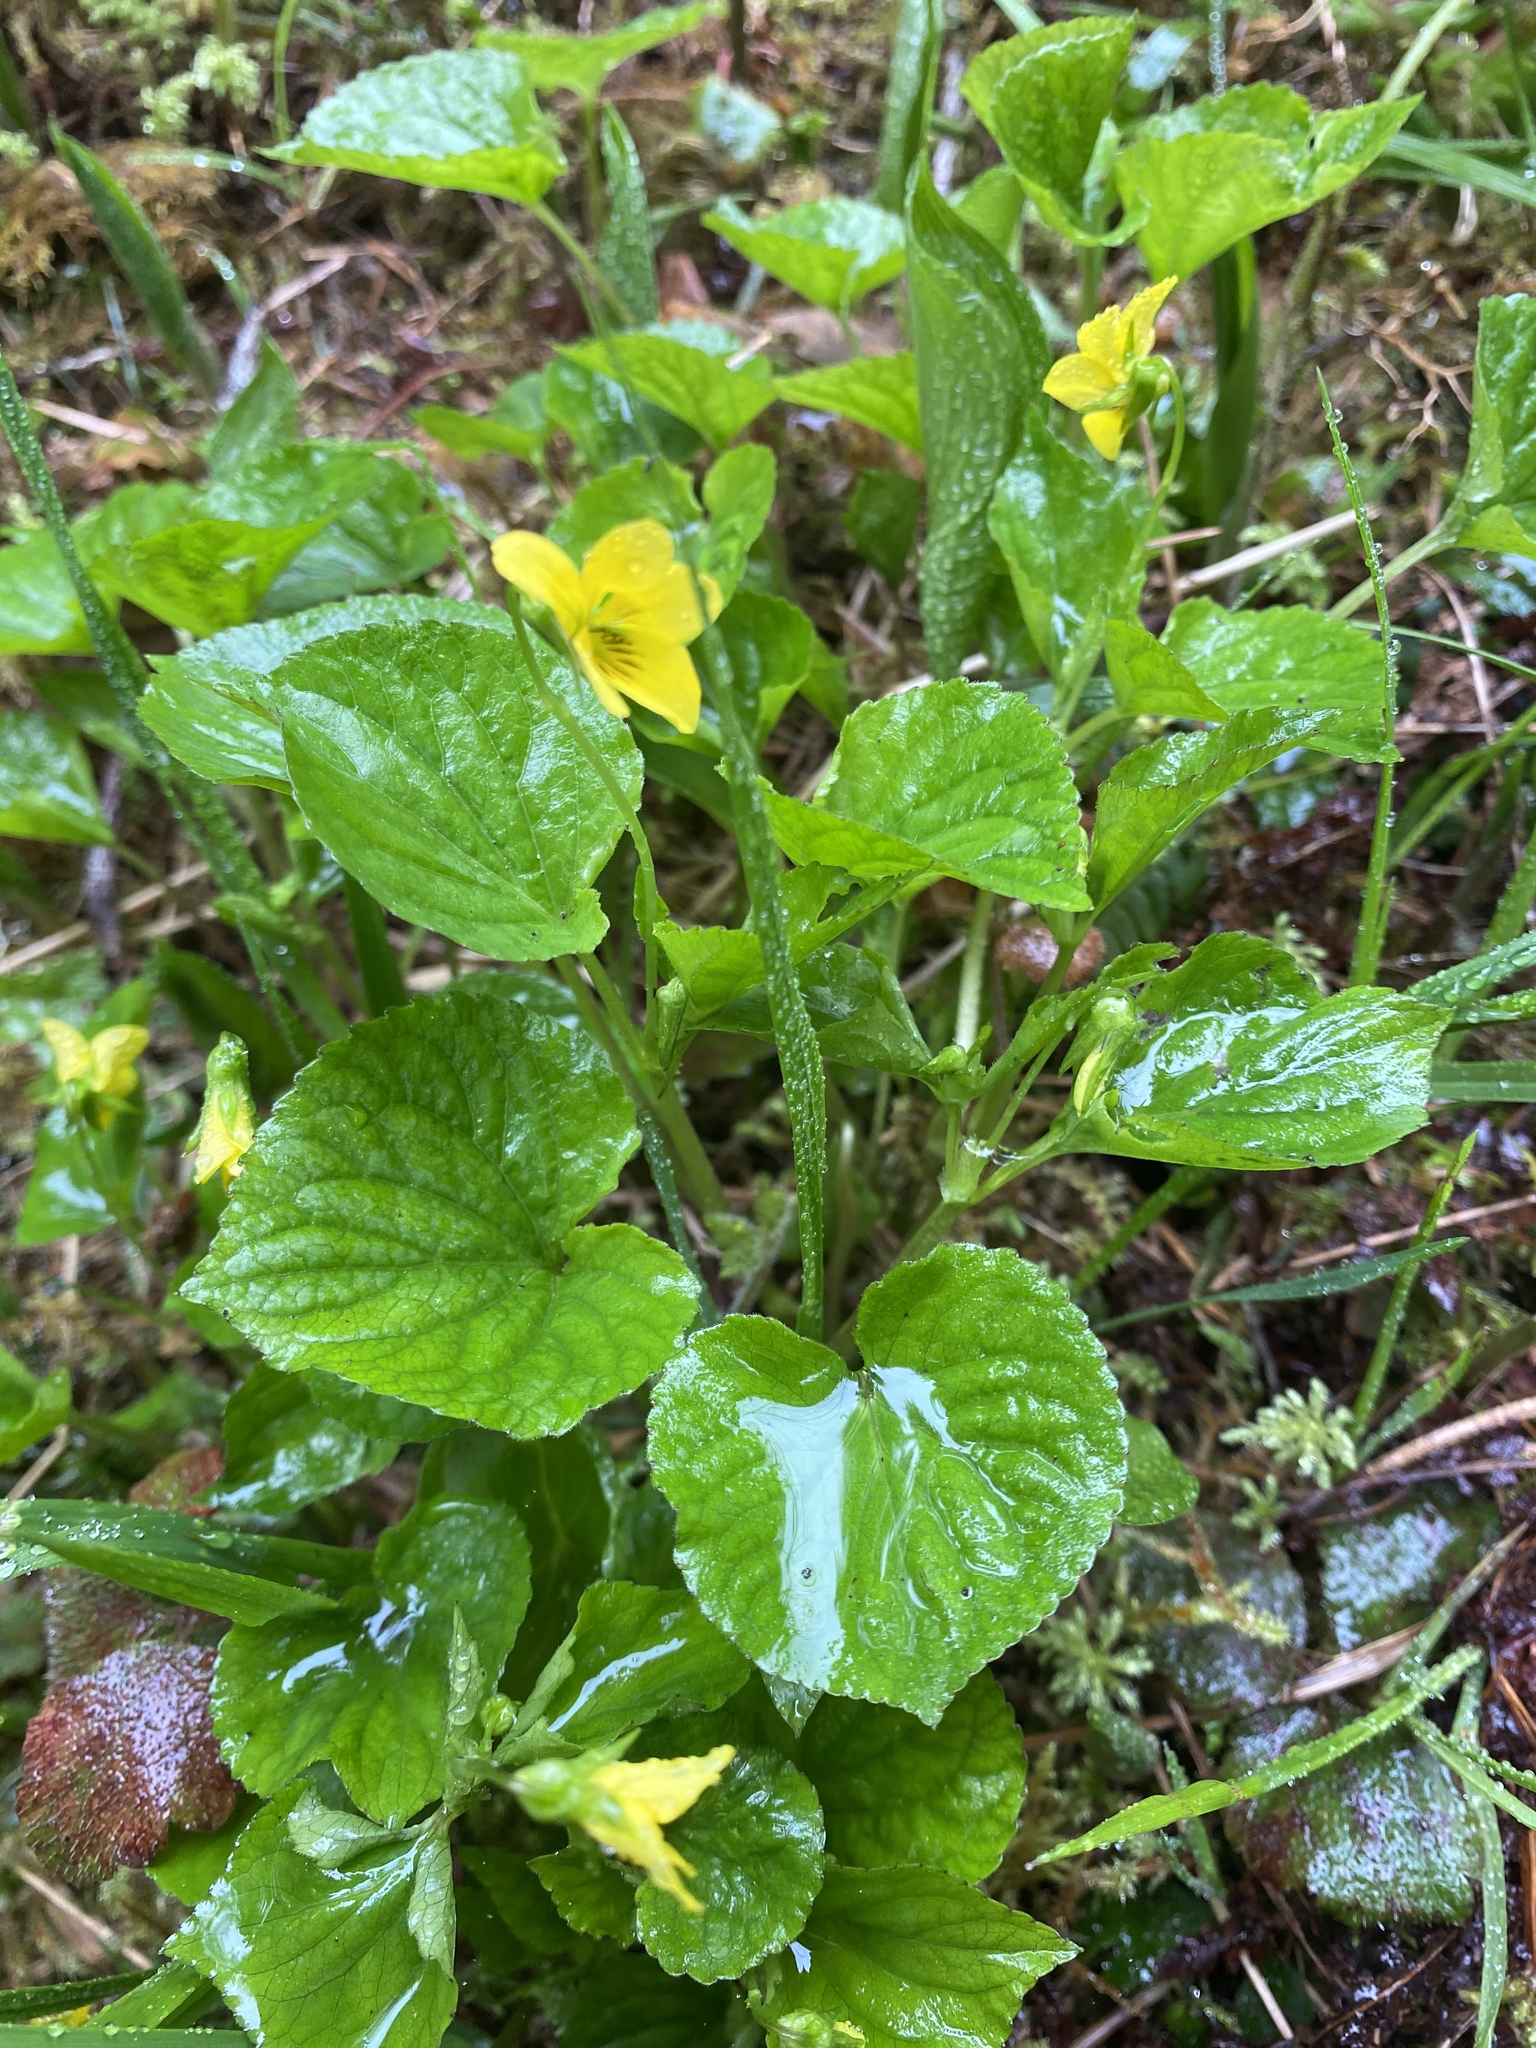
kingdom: Plantae
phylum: Tracheophyta
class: Magnoliopsida
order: Malpighiales
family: Violaceae
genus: Viola
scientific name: Viola glabella
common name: Stream violet
